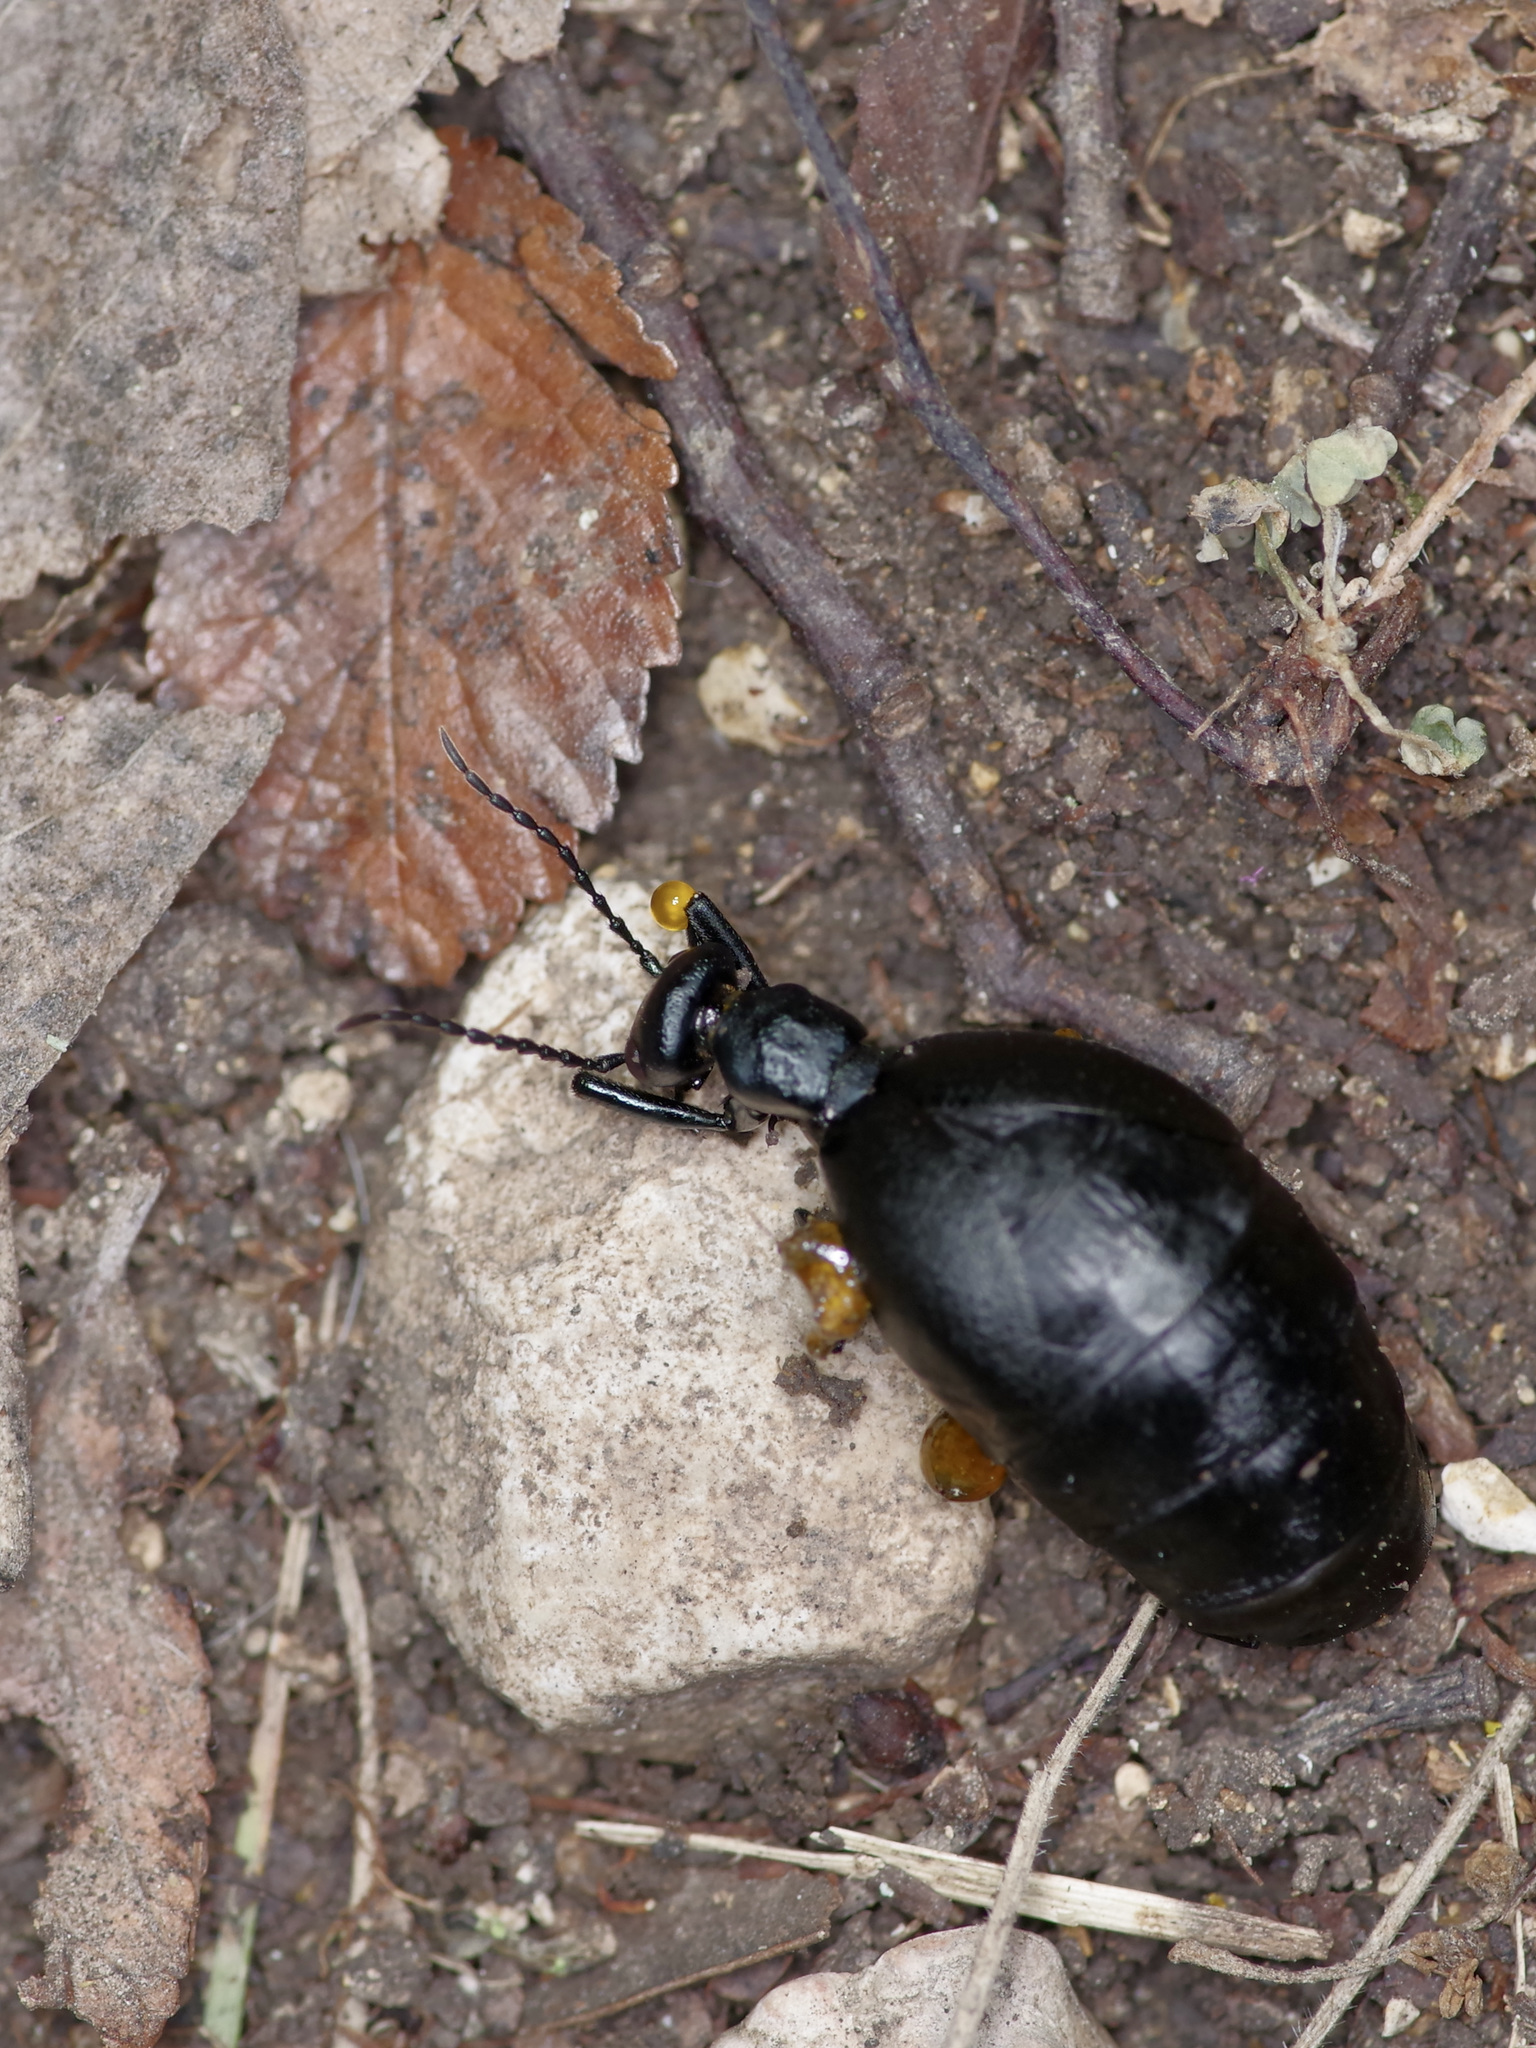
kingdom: Animalia
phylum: Arthropoda
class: Insecta
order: Coleoptera
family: Meloidae
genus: Meloe
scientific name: Meloe americanus
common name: Buttercup oil beetle
